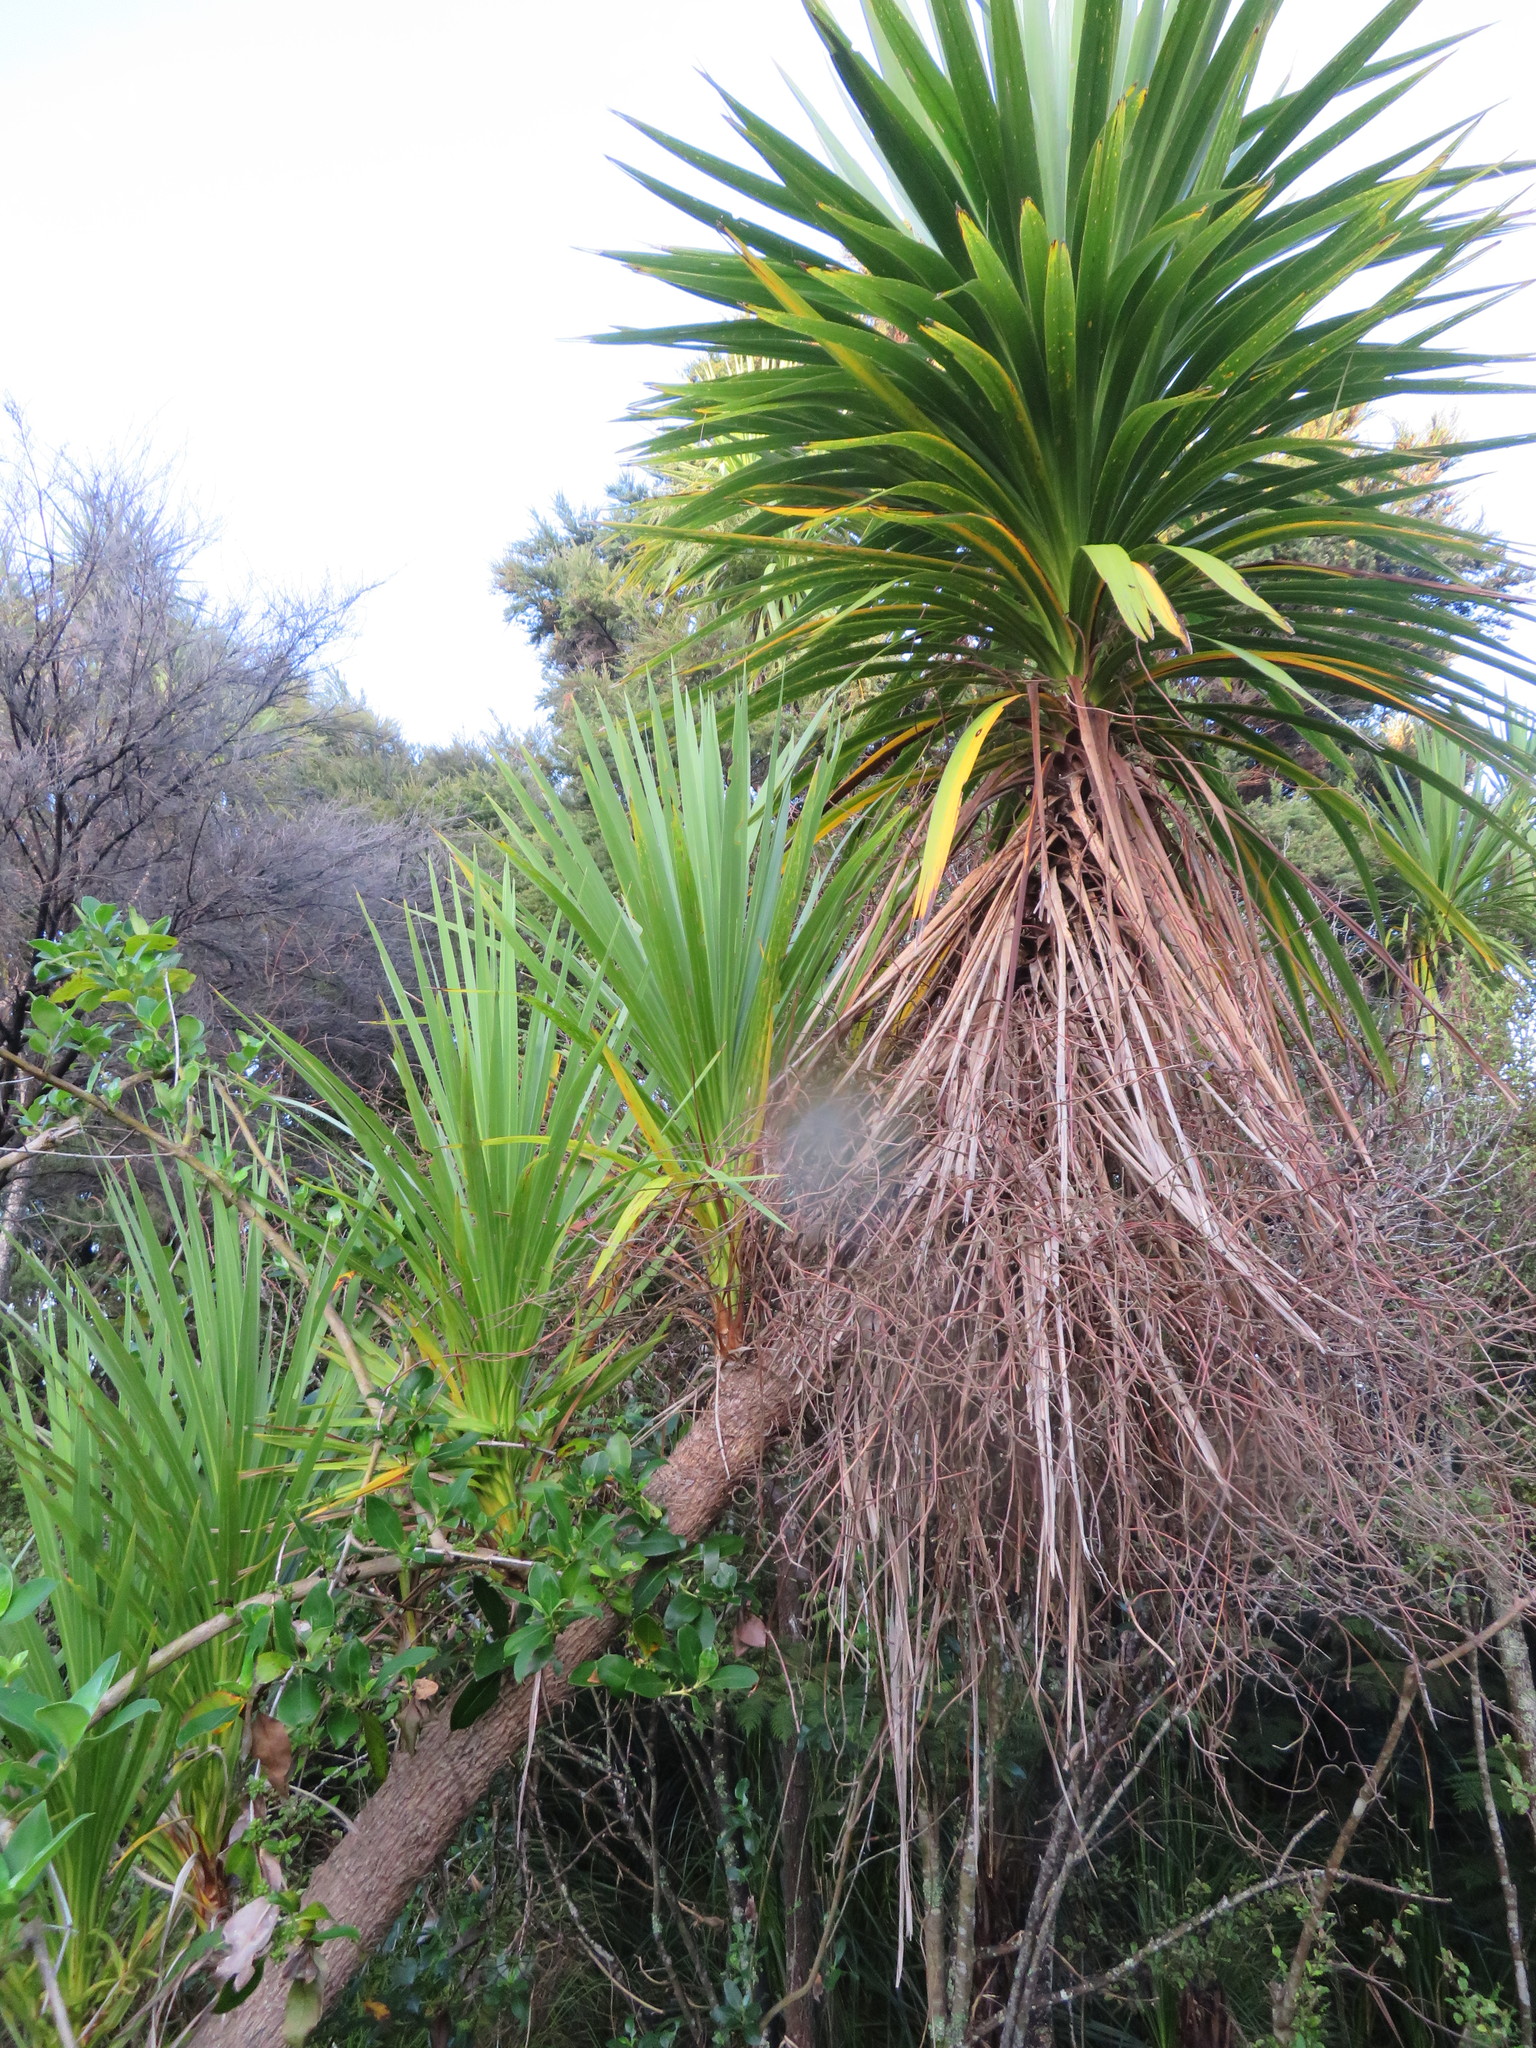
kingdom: Plantae
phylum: Tracheophyta
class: Liliopsida
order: Asparagales
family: Asparagaceae
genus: Cordyline
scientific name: Cordyline australis
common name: Cabbage-palm
